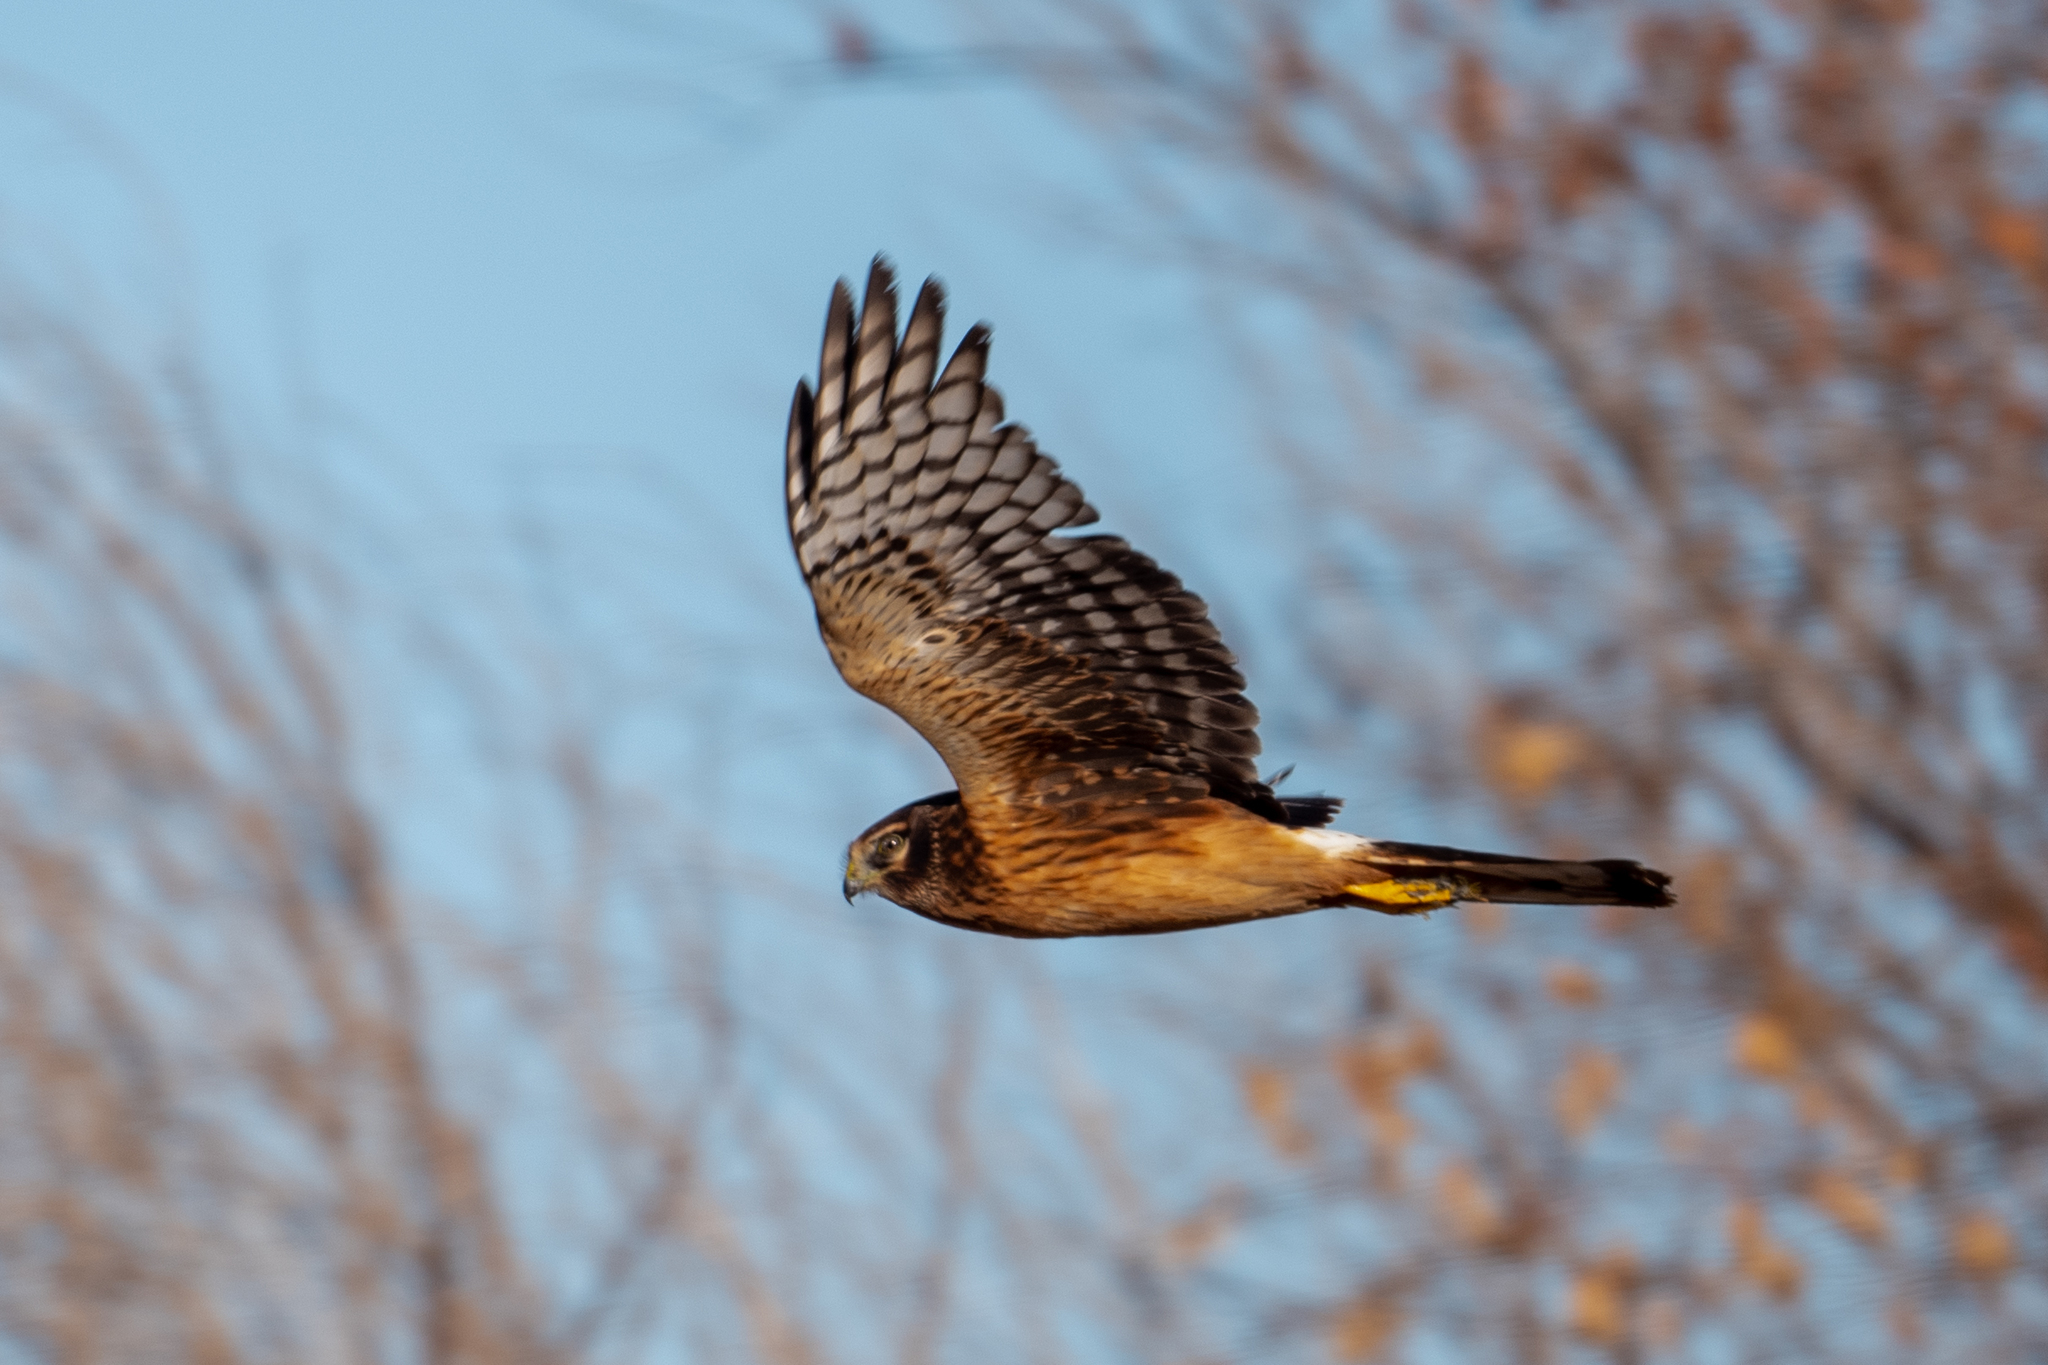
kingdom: Animalia
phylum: Chordata
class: Aves
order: Accipitriformes
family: Accipitridae
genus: Circus
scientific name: Circus cyaneus
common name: Hen harrier
